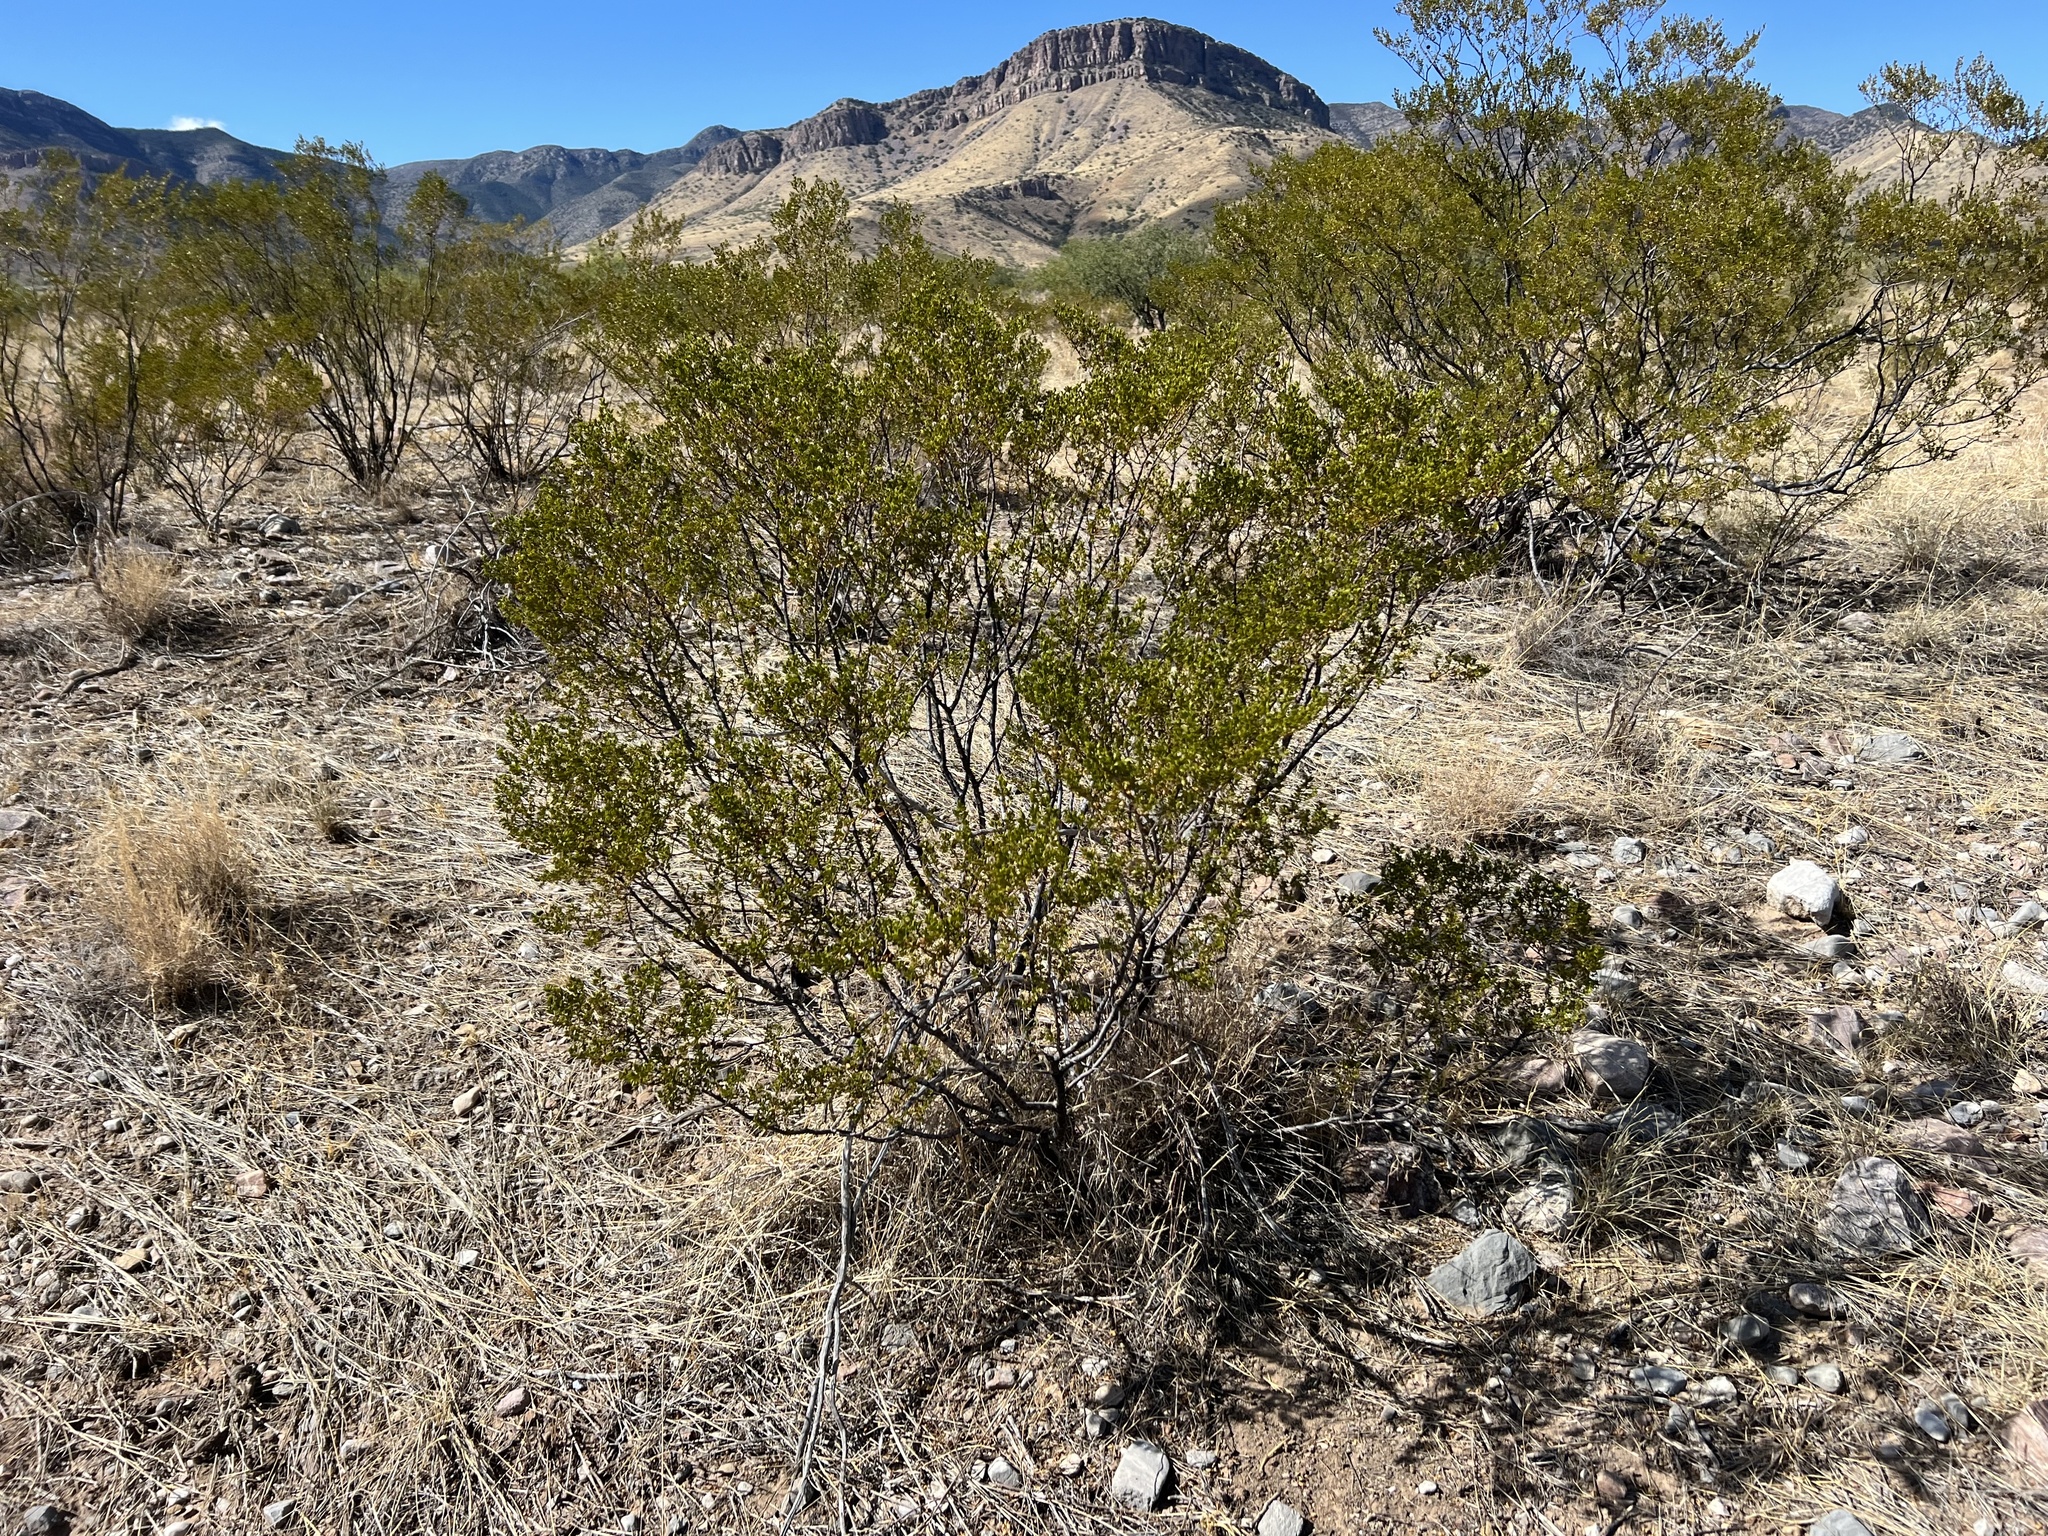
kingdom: Plantae
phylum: Tracheophyta
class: Magnoliopsida
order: Zygophyllales
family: Zygophyllaceae
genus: Larrea
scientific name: Larrea tridentata
